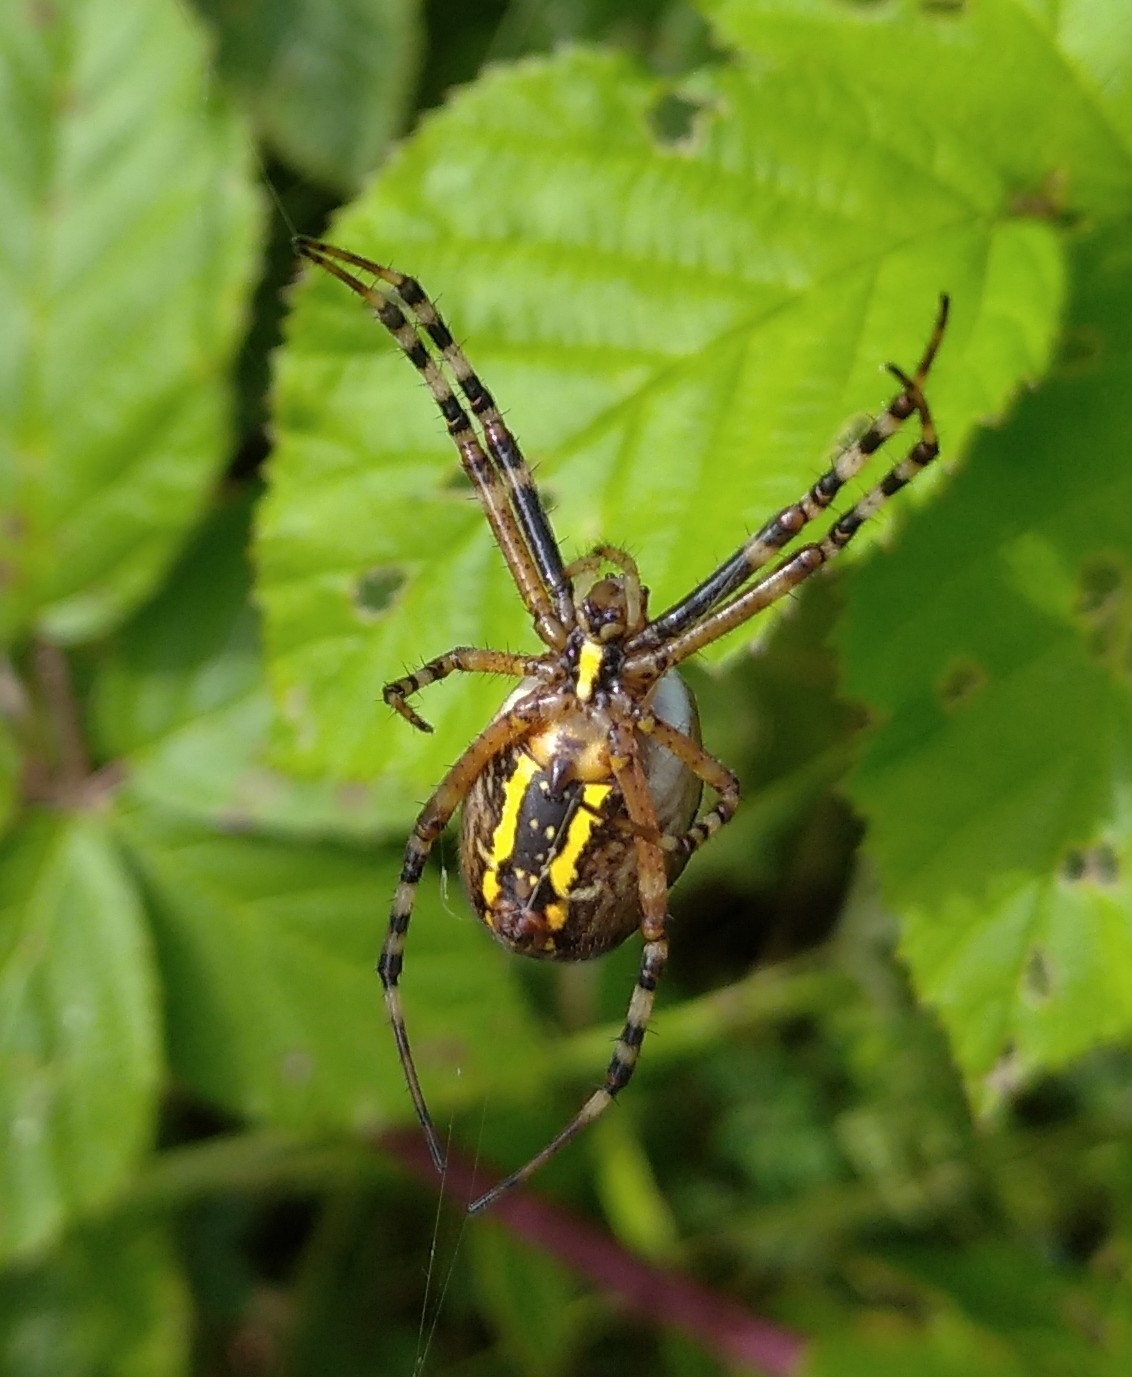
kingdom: Animalia
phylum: Arthropoda
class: Arachnida
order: Araneae
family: Araneidae
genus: Argiope
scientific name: Argiope bruennichi
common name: Wasp spider
